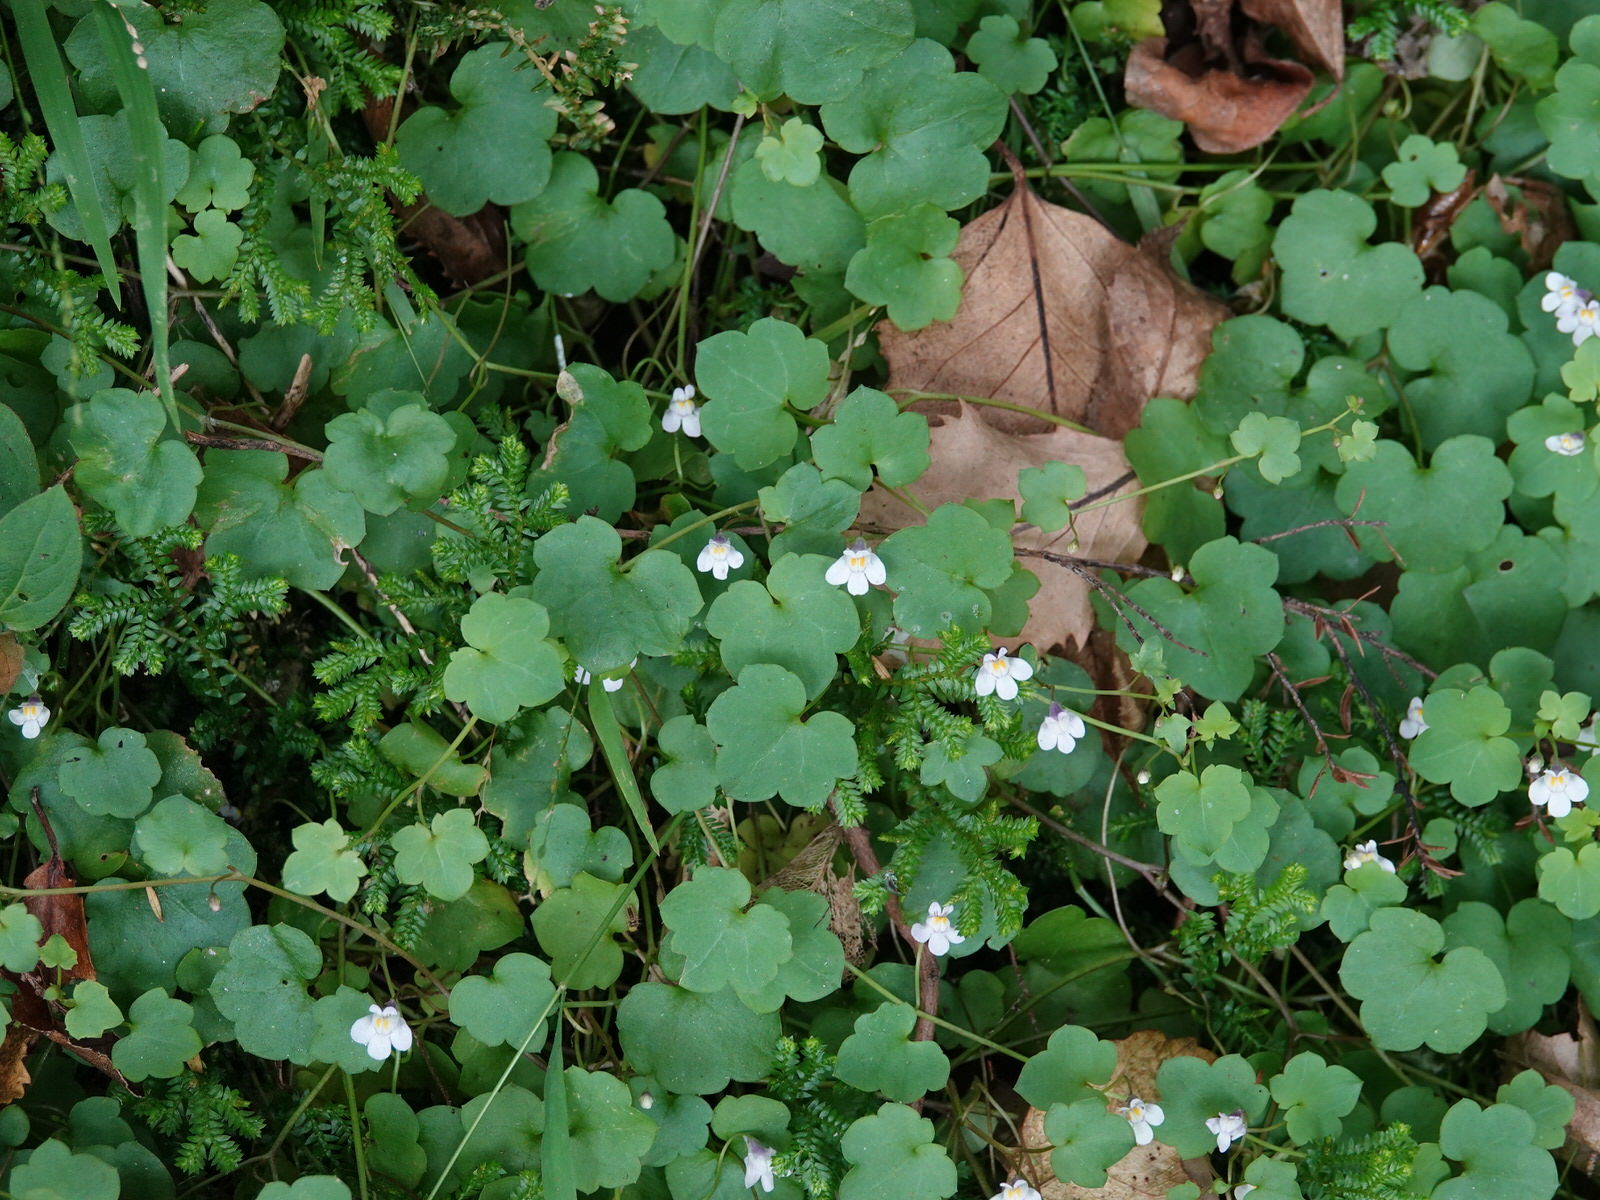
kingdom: Plantae
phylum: Tracheophyta
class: Magnoliopsida
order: Lamiales
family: Plantaginaceae
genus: Cymbalaria
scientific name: Cymbalaria muralis
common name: Ivy-leaved toadflax
